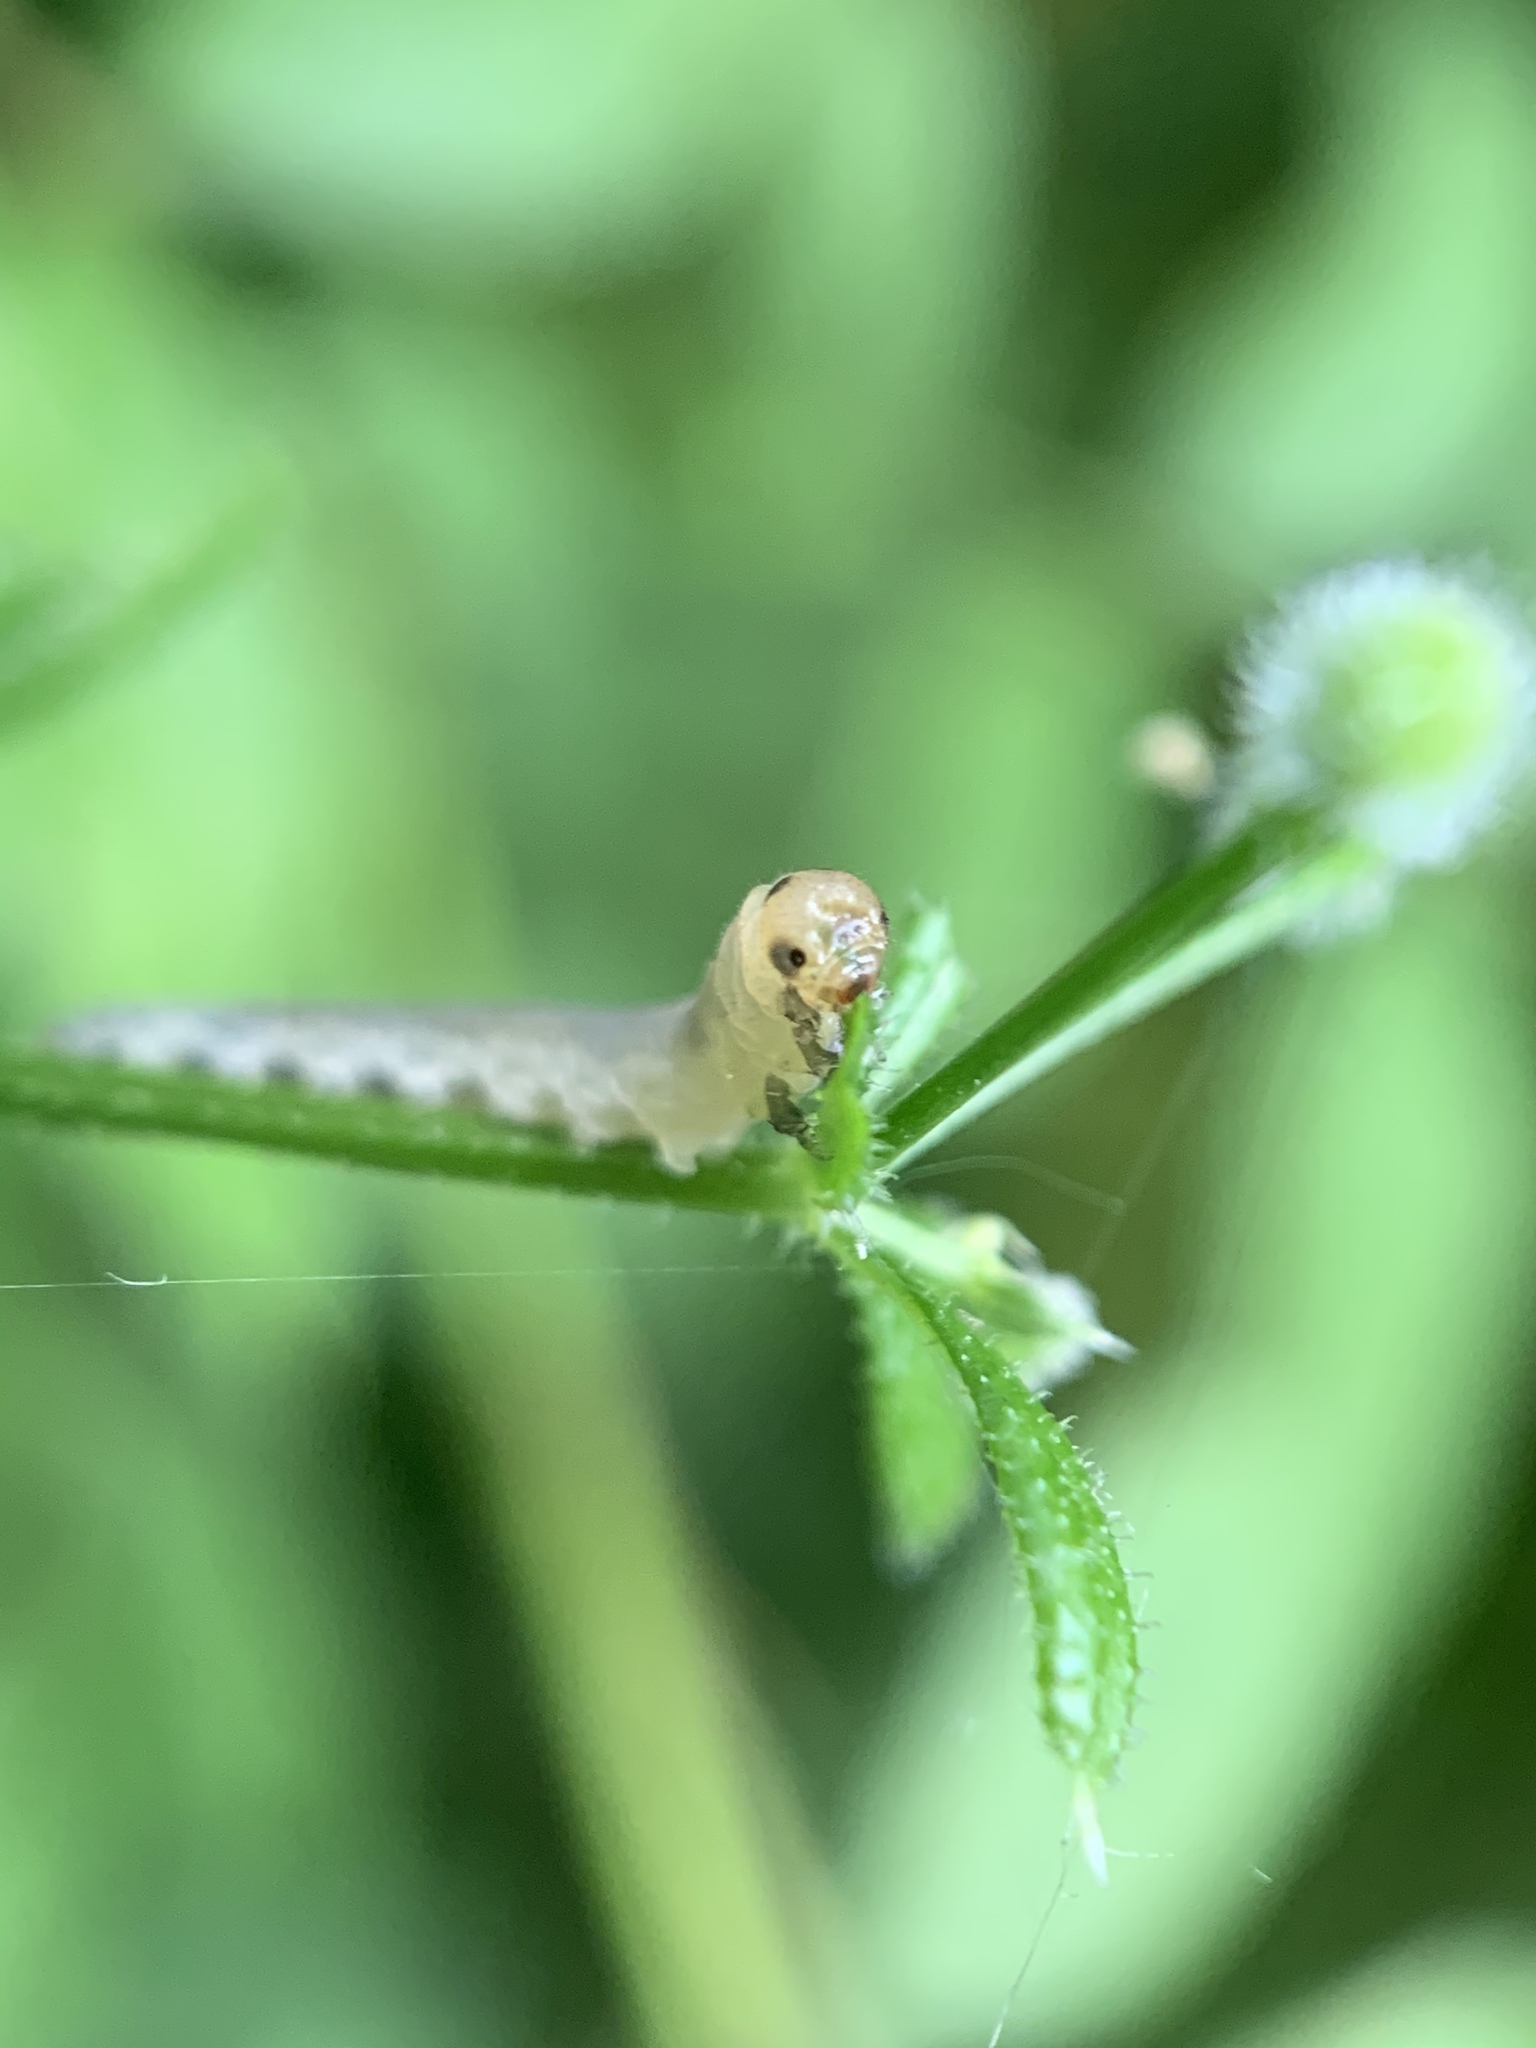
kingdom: Animalia
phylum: Arthropoda
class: Insecta
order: Hymenoptera
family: Tenthredinidae
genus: Halidamia
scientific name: Halidamia affinis
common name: Wasp
